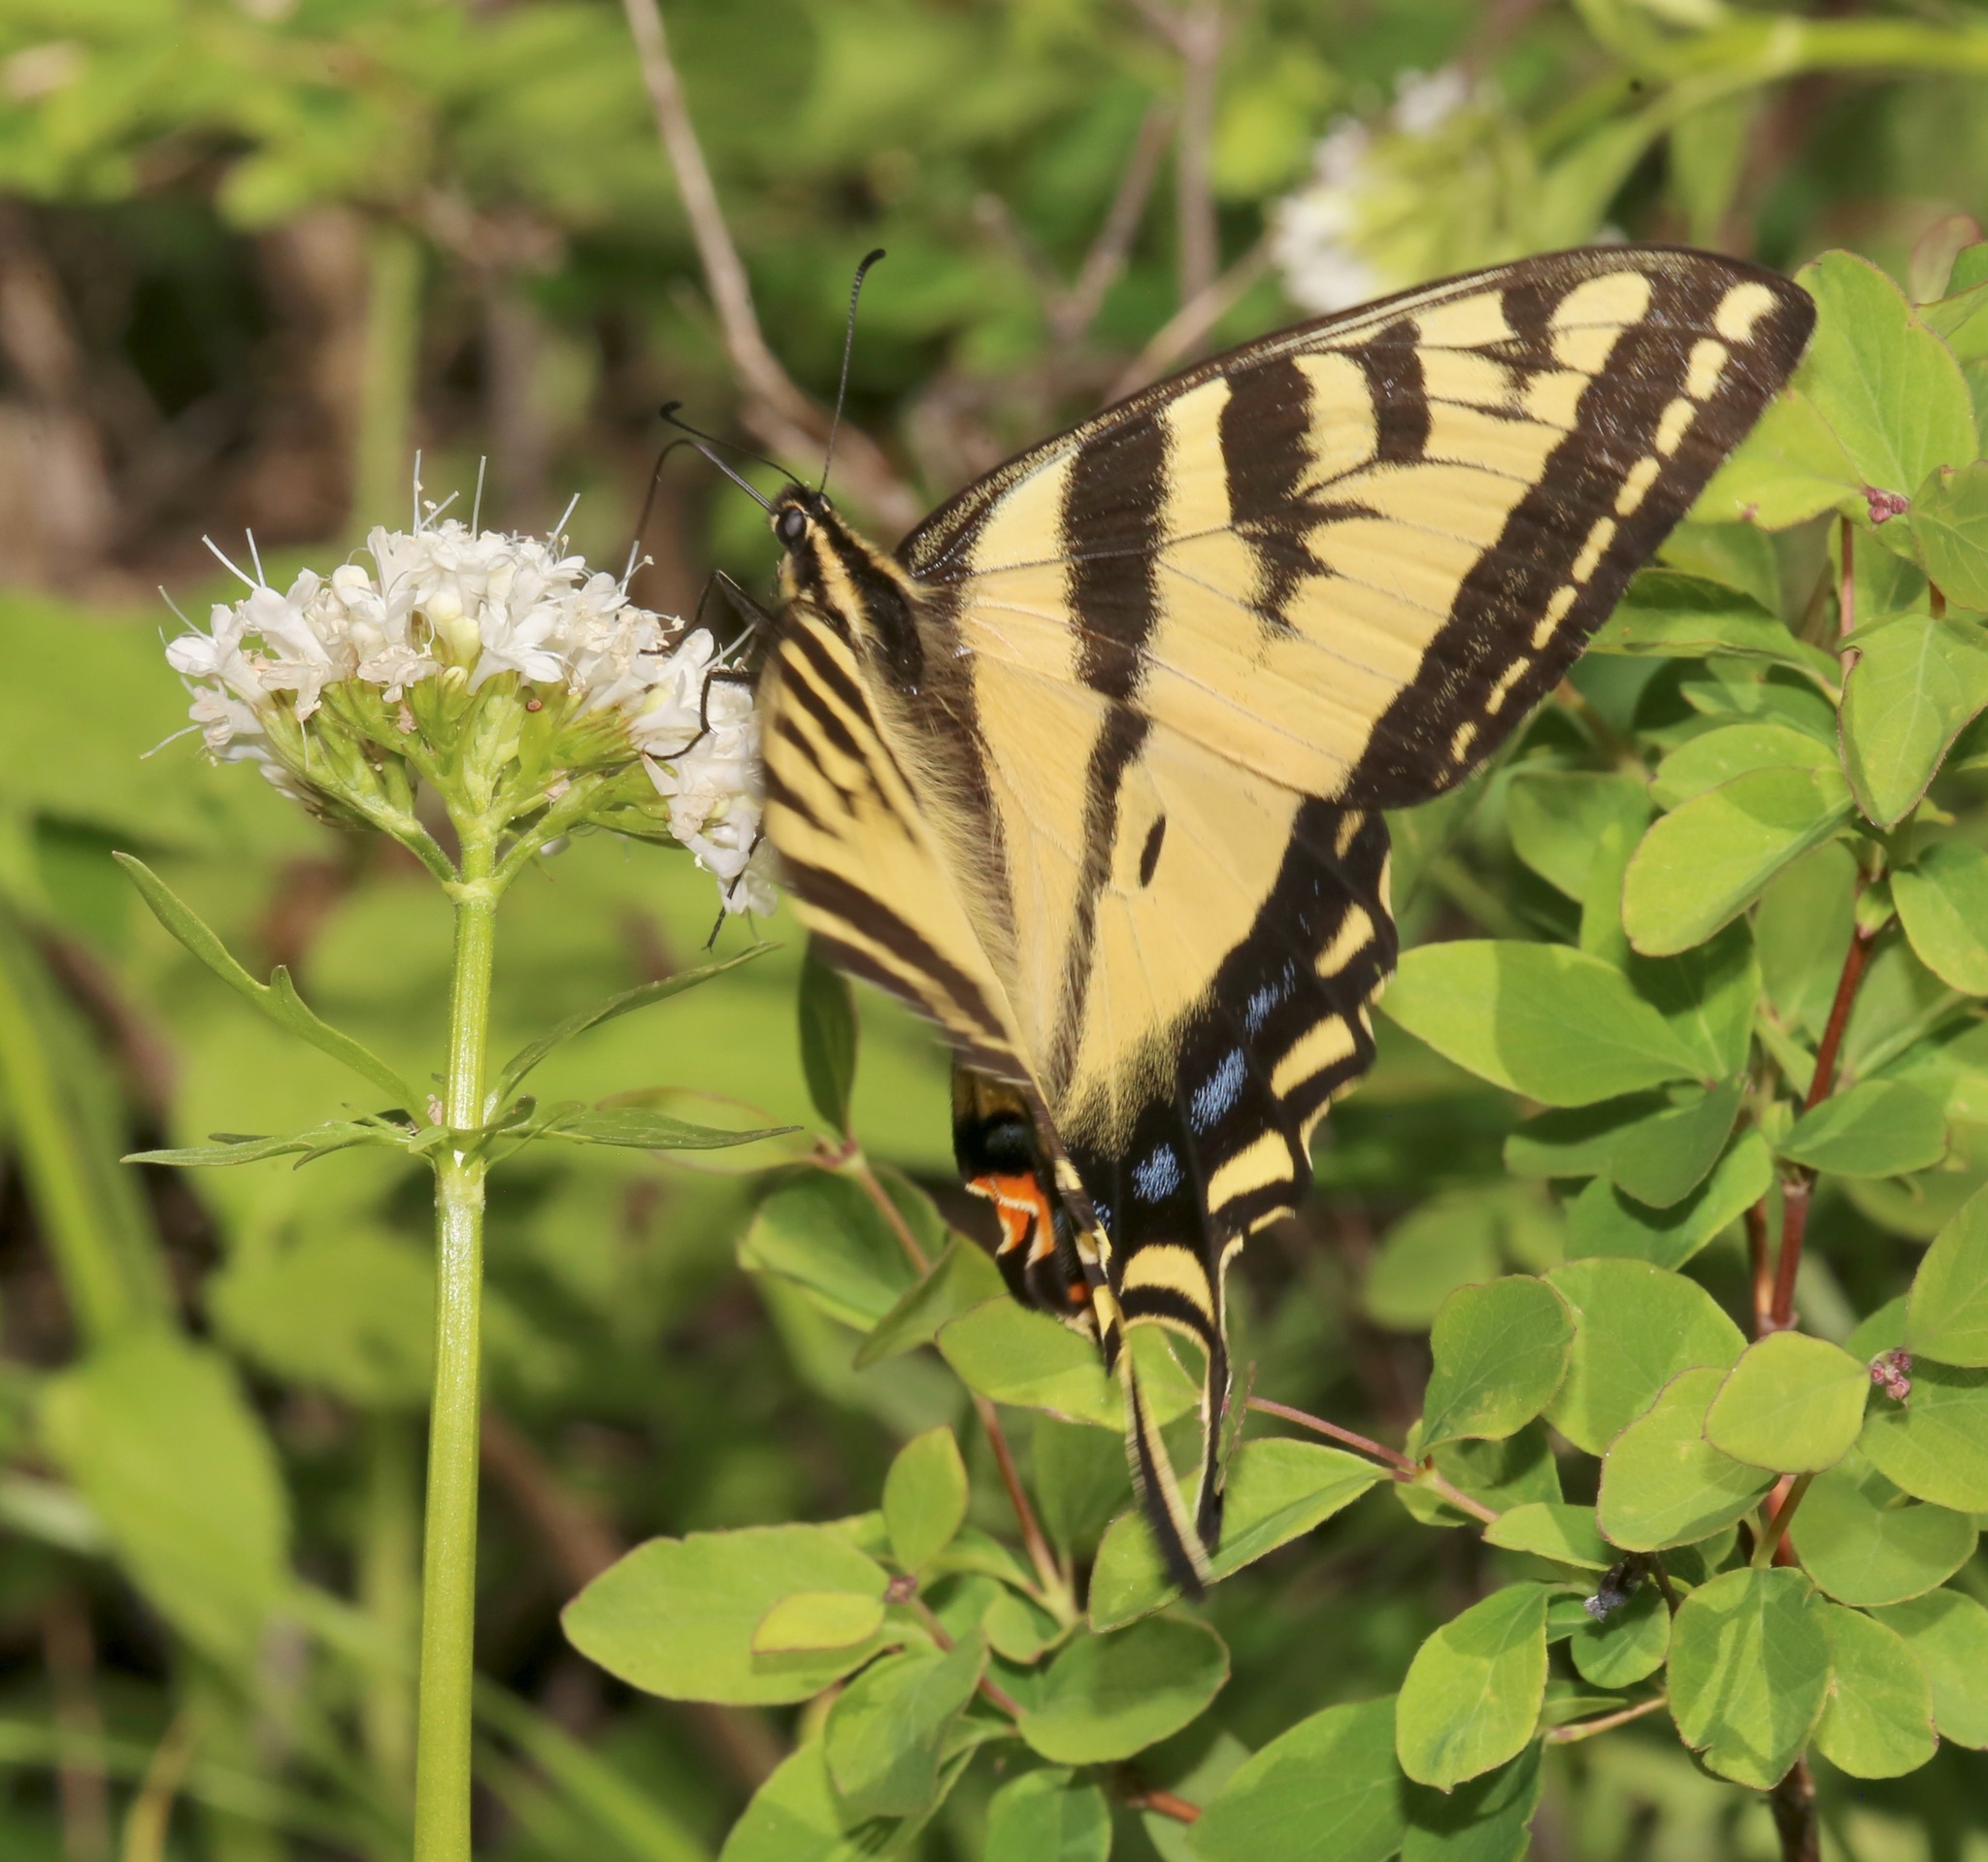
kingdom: Animalia
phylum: Arthropoda
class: Insecta
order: Lepidoptera
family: Papilionidae
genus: Papilio
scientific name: Papilio rutulus
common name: Western tiger swallowtail
